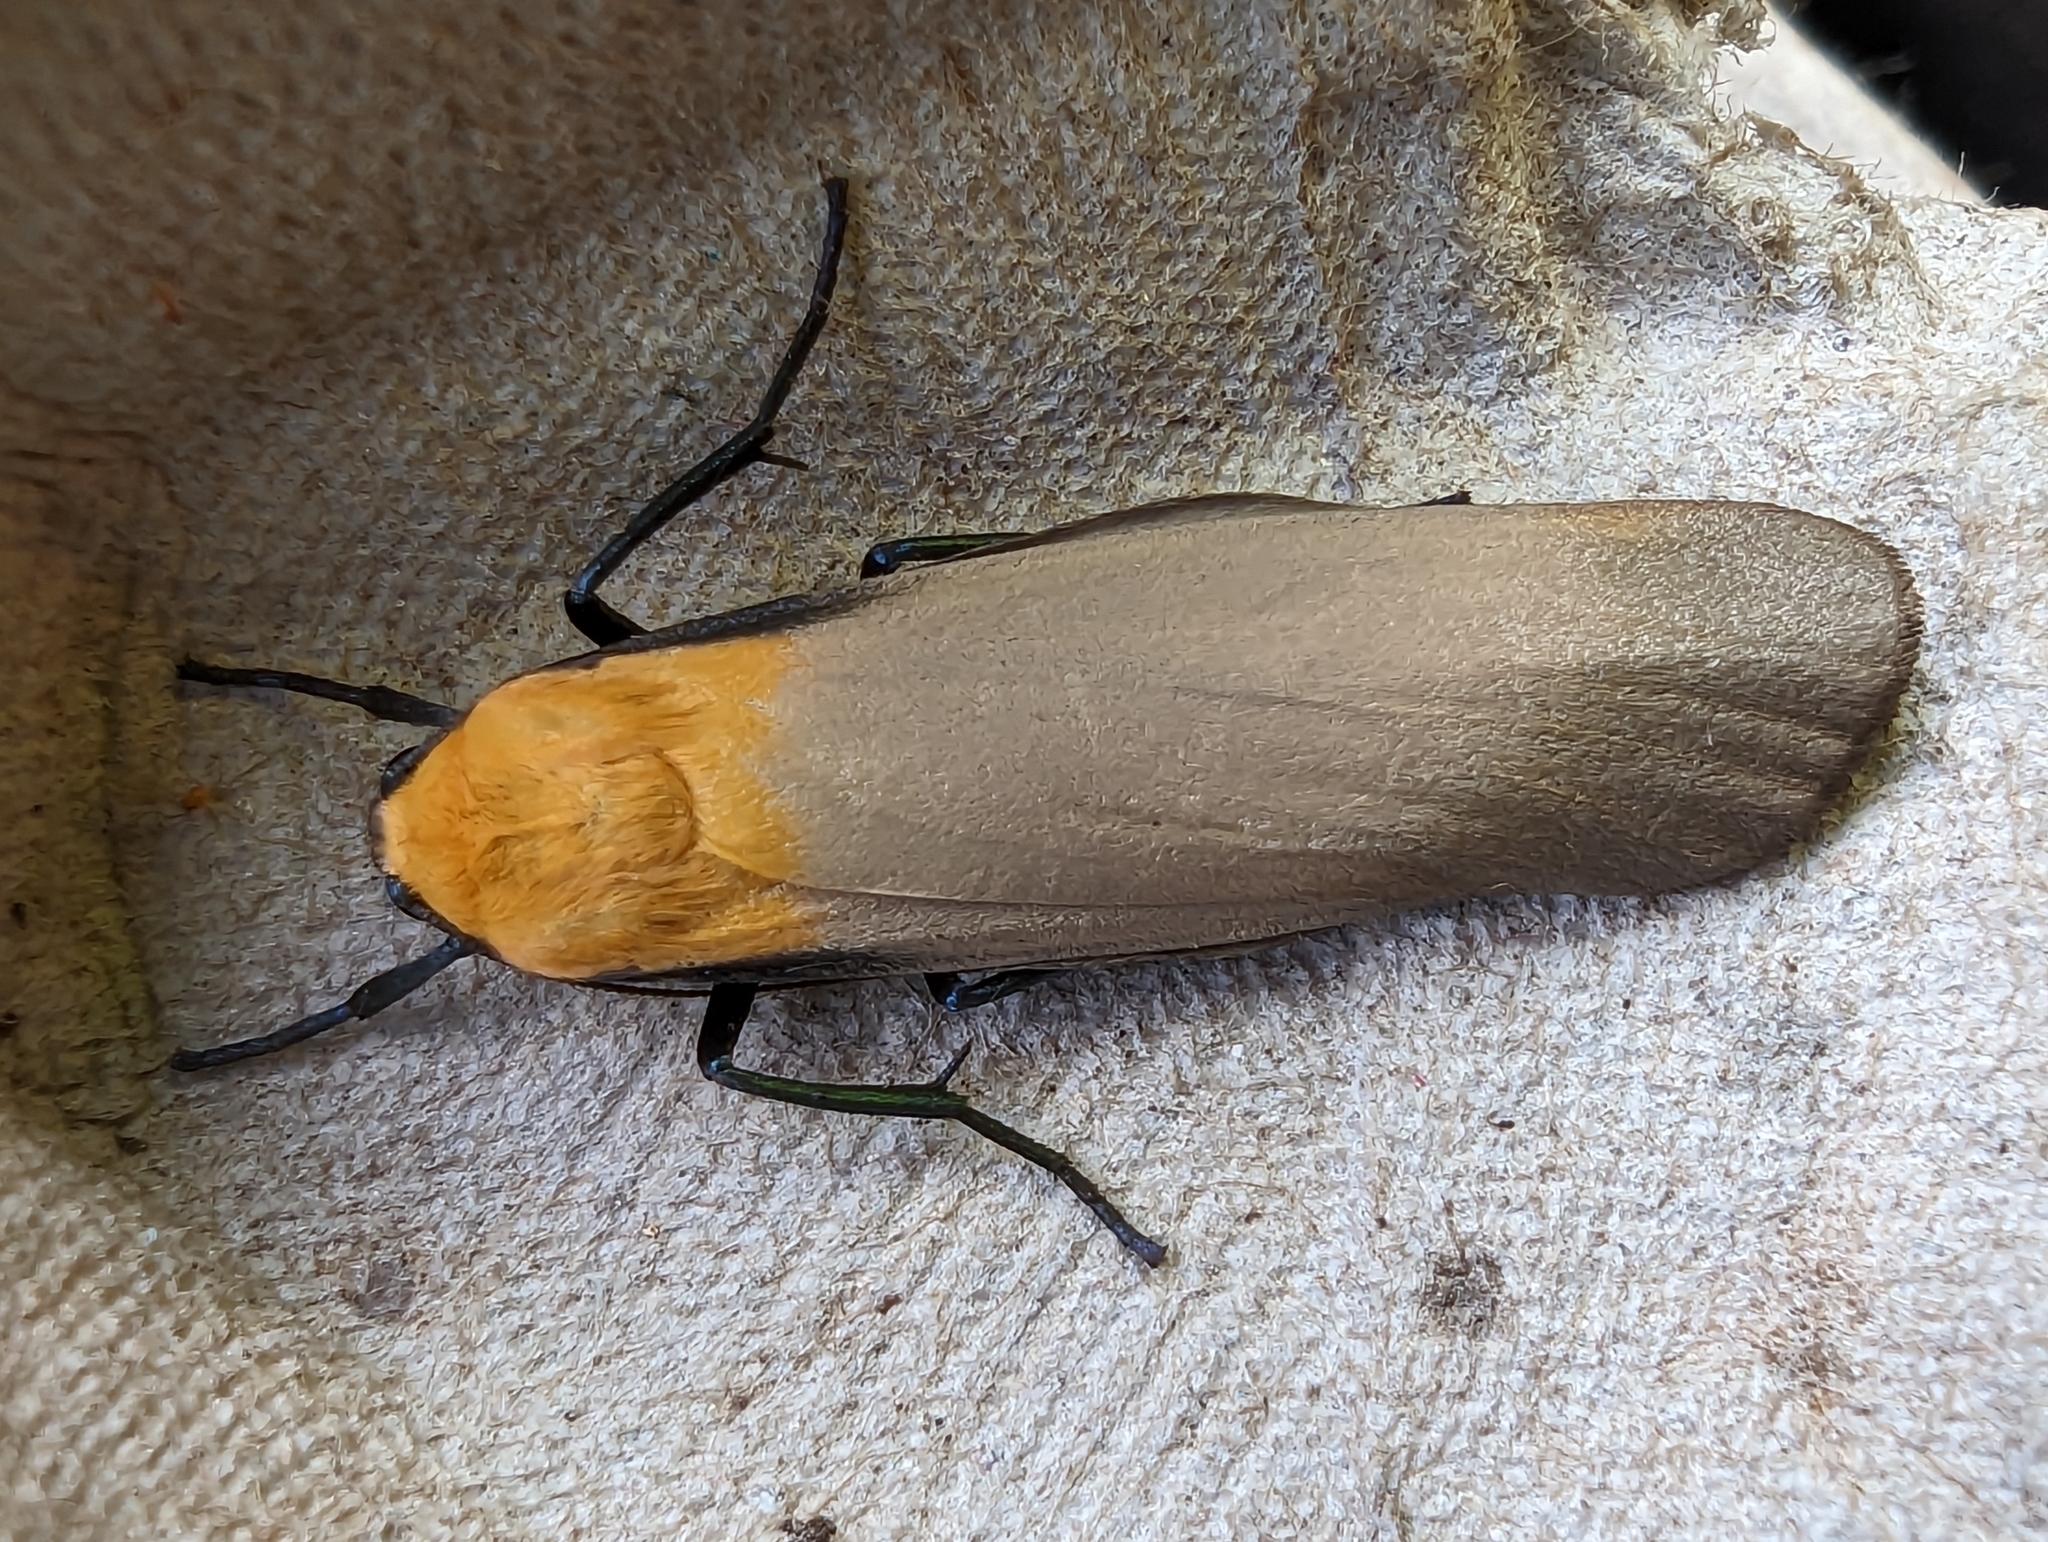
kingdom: Animalia
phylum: Arthropoda
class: Insecta
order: Lepidoptera
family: Erebidae
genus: Lithosia
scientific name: Lithosia quadra
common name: Four-spotted footman
